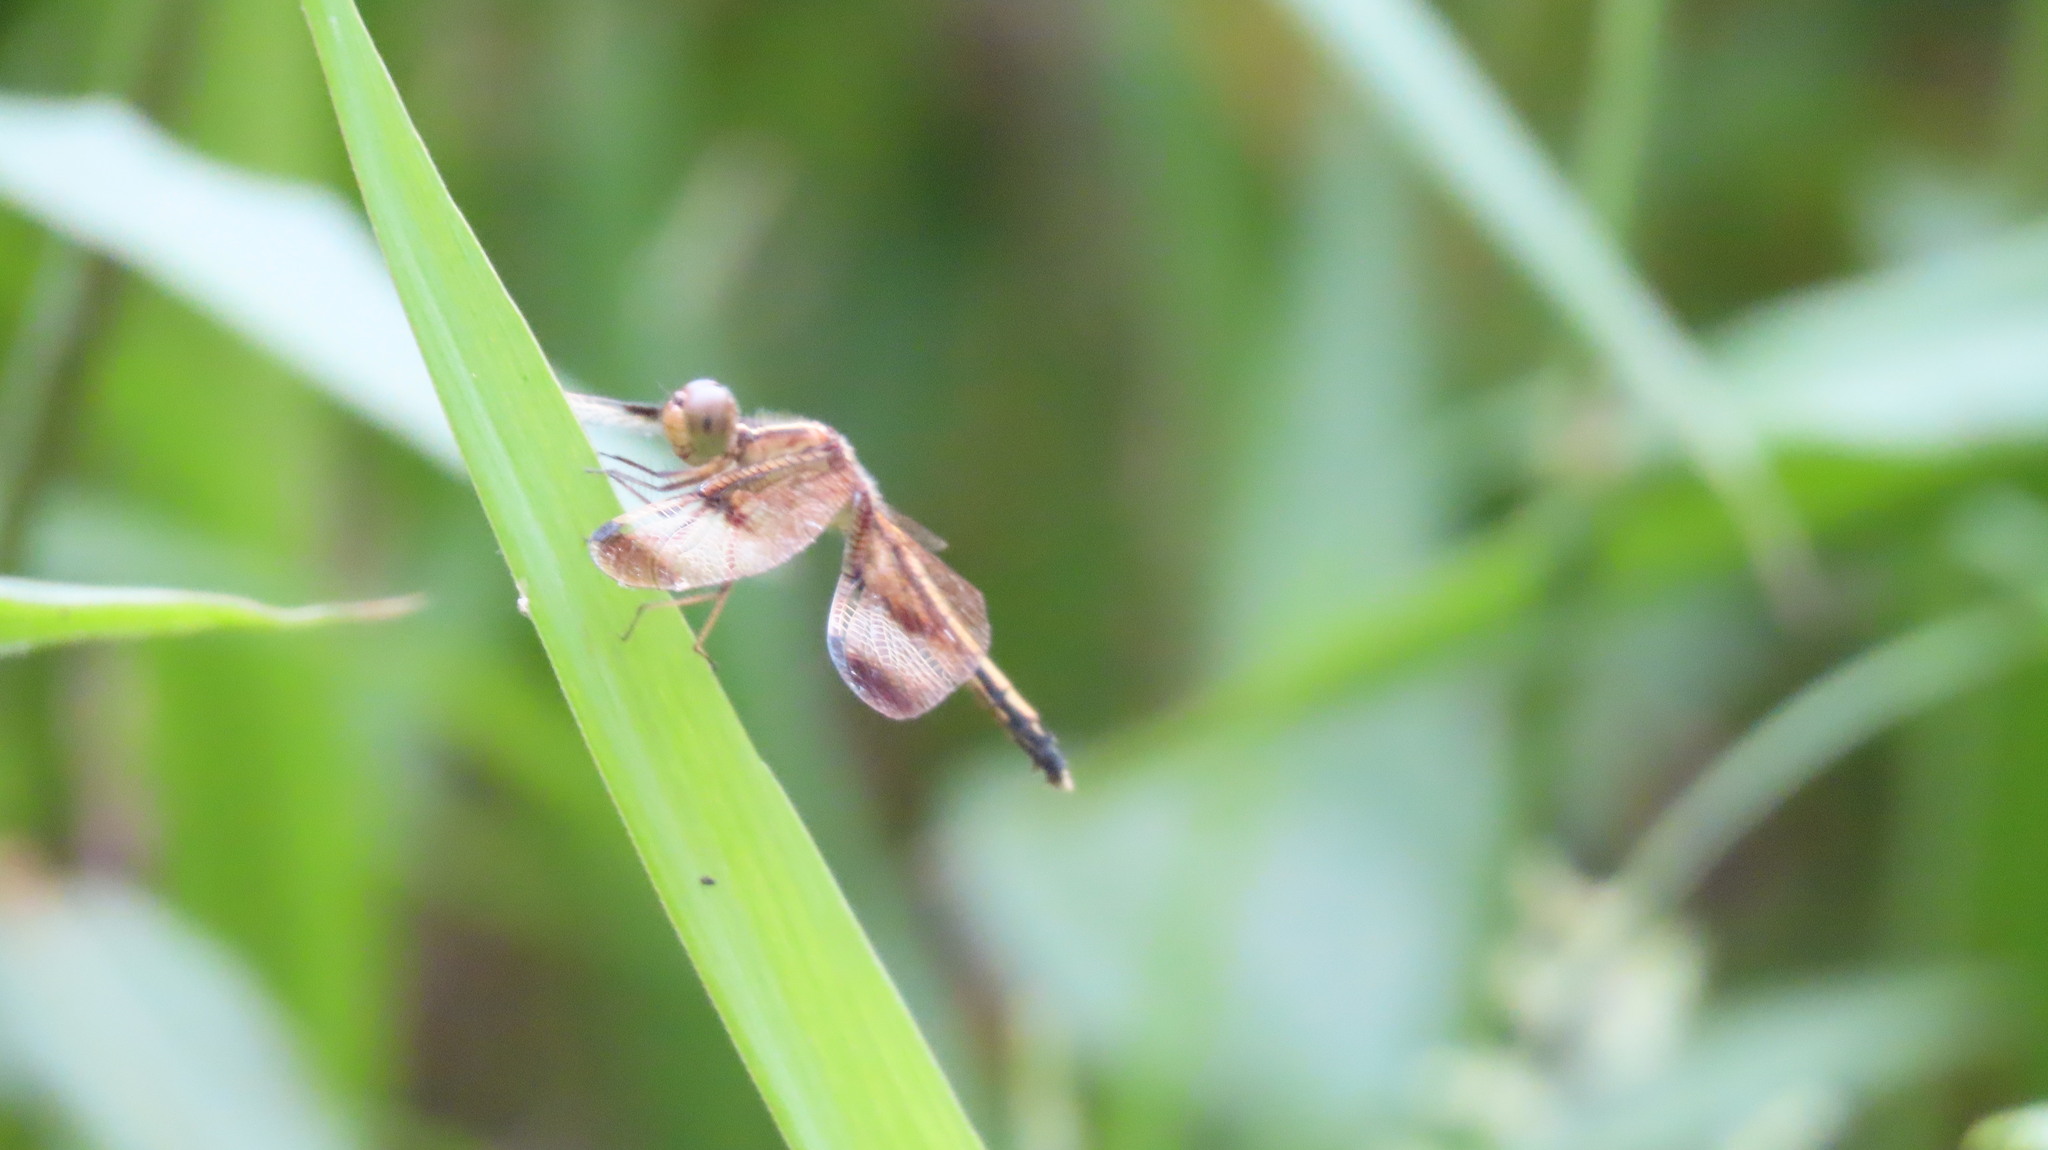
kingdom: Animalia
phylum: Arthropoda
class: Insecta
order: Odonata
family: Libellulidae
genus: Neurothemis
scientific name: Neurothemis tullia
